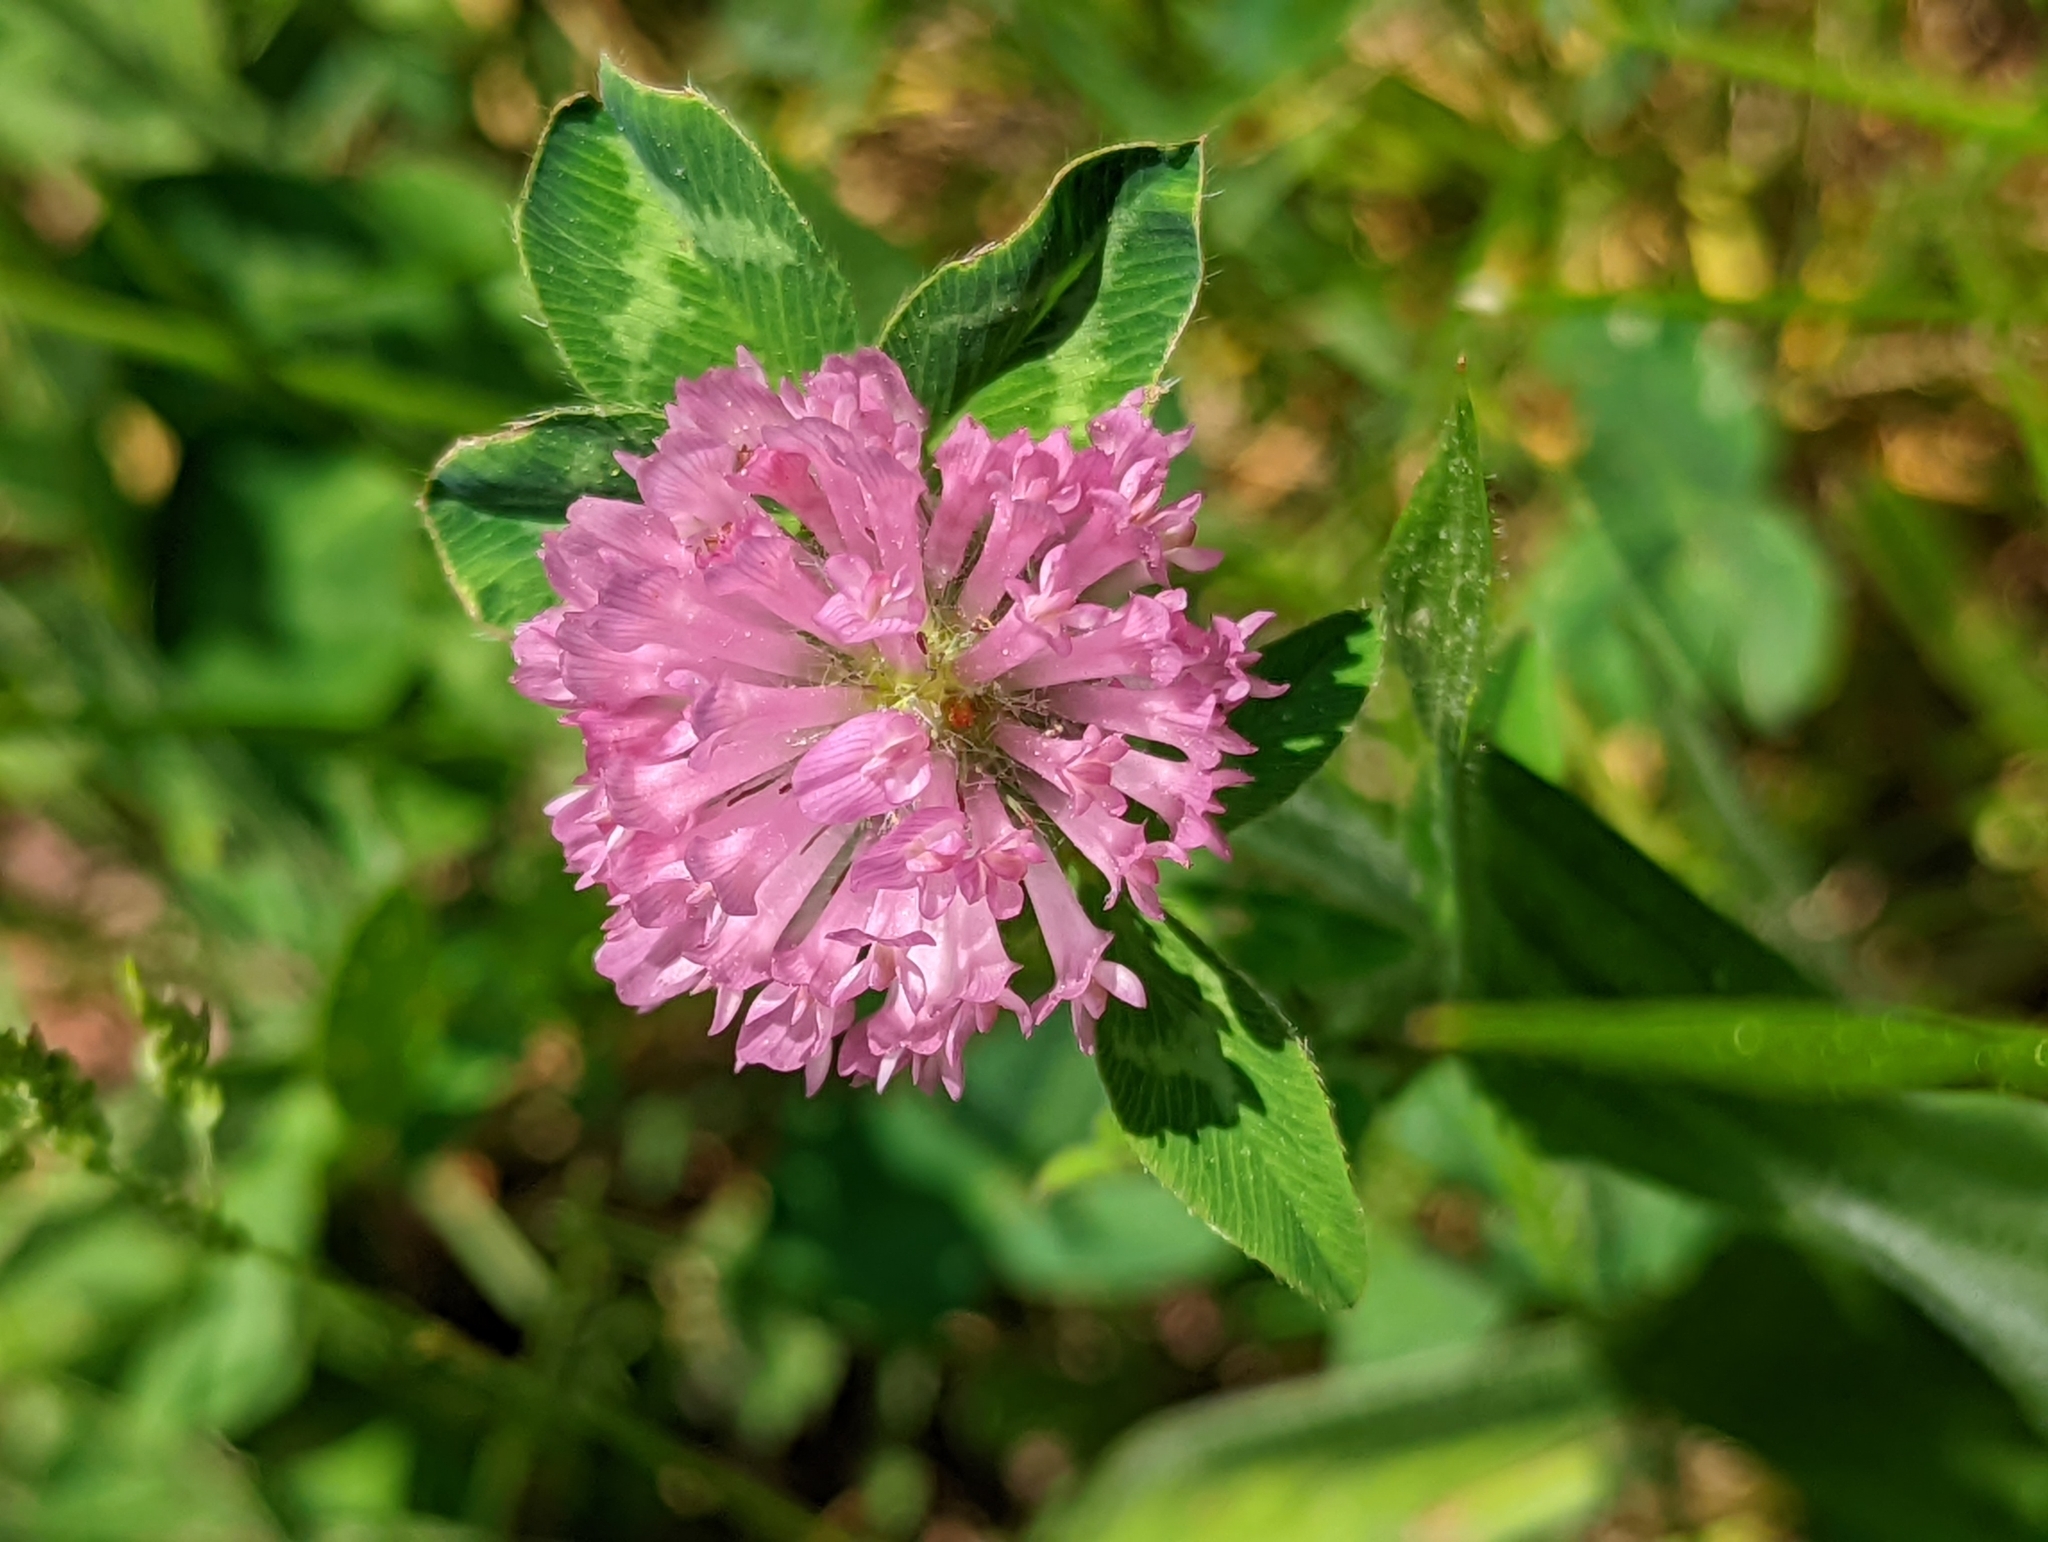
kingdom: Plantae
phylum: Tracheophyta
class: Magnoliopsida
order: Fabales
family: Fabaceae
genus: Trifolium
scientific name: Trifolium pratense
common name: Red clover
